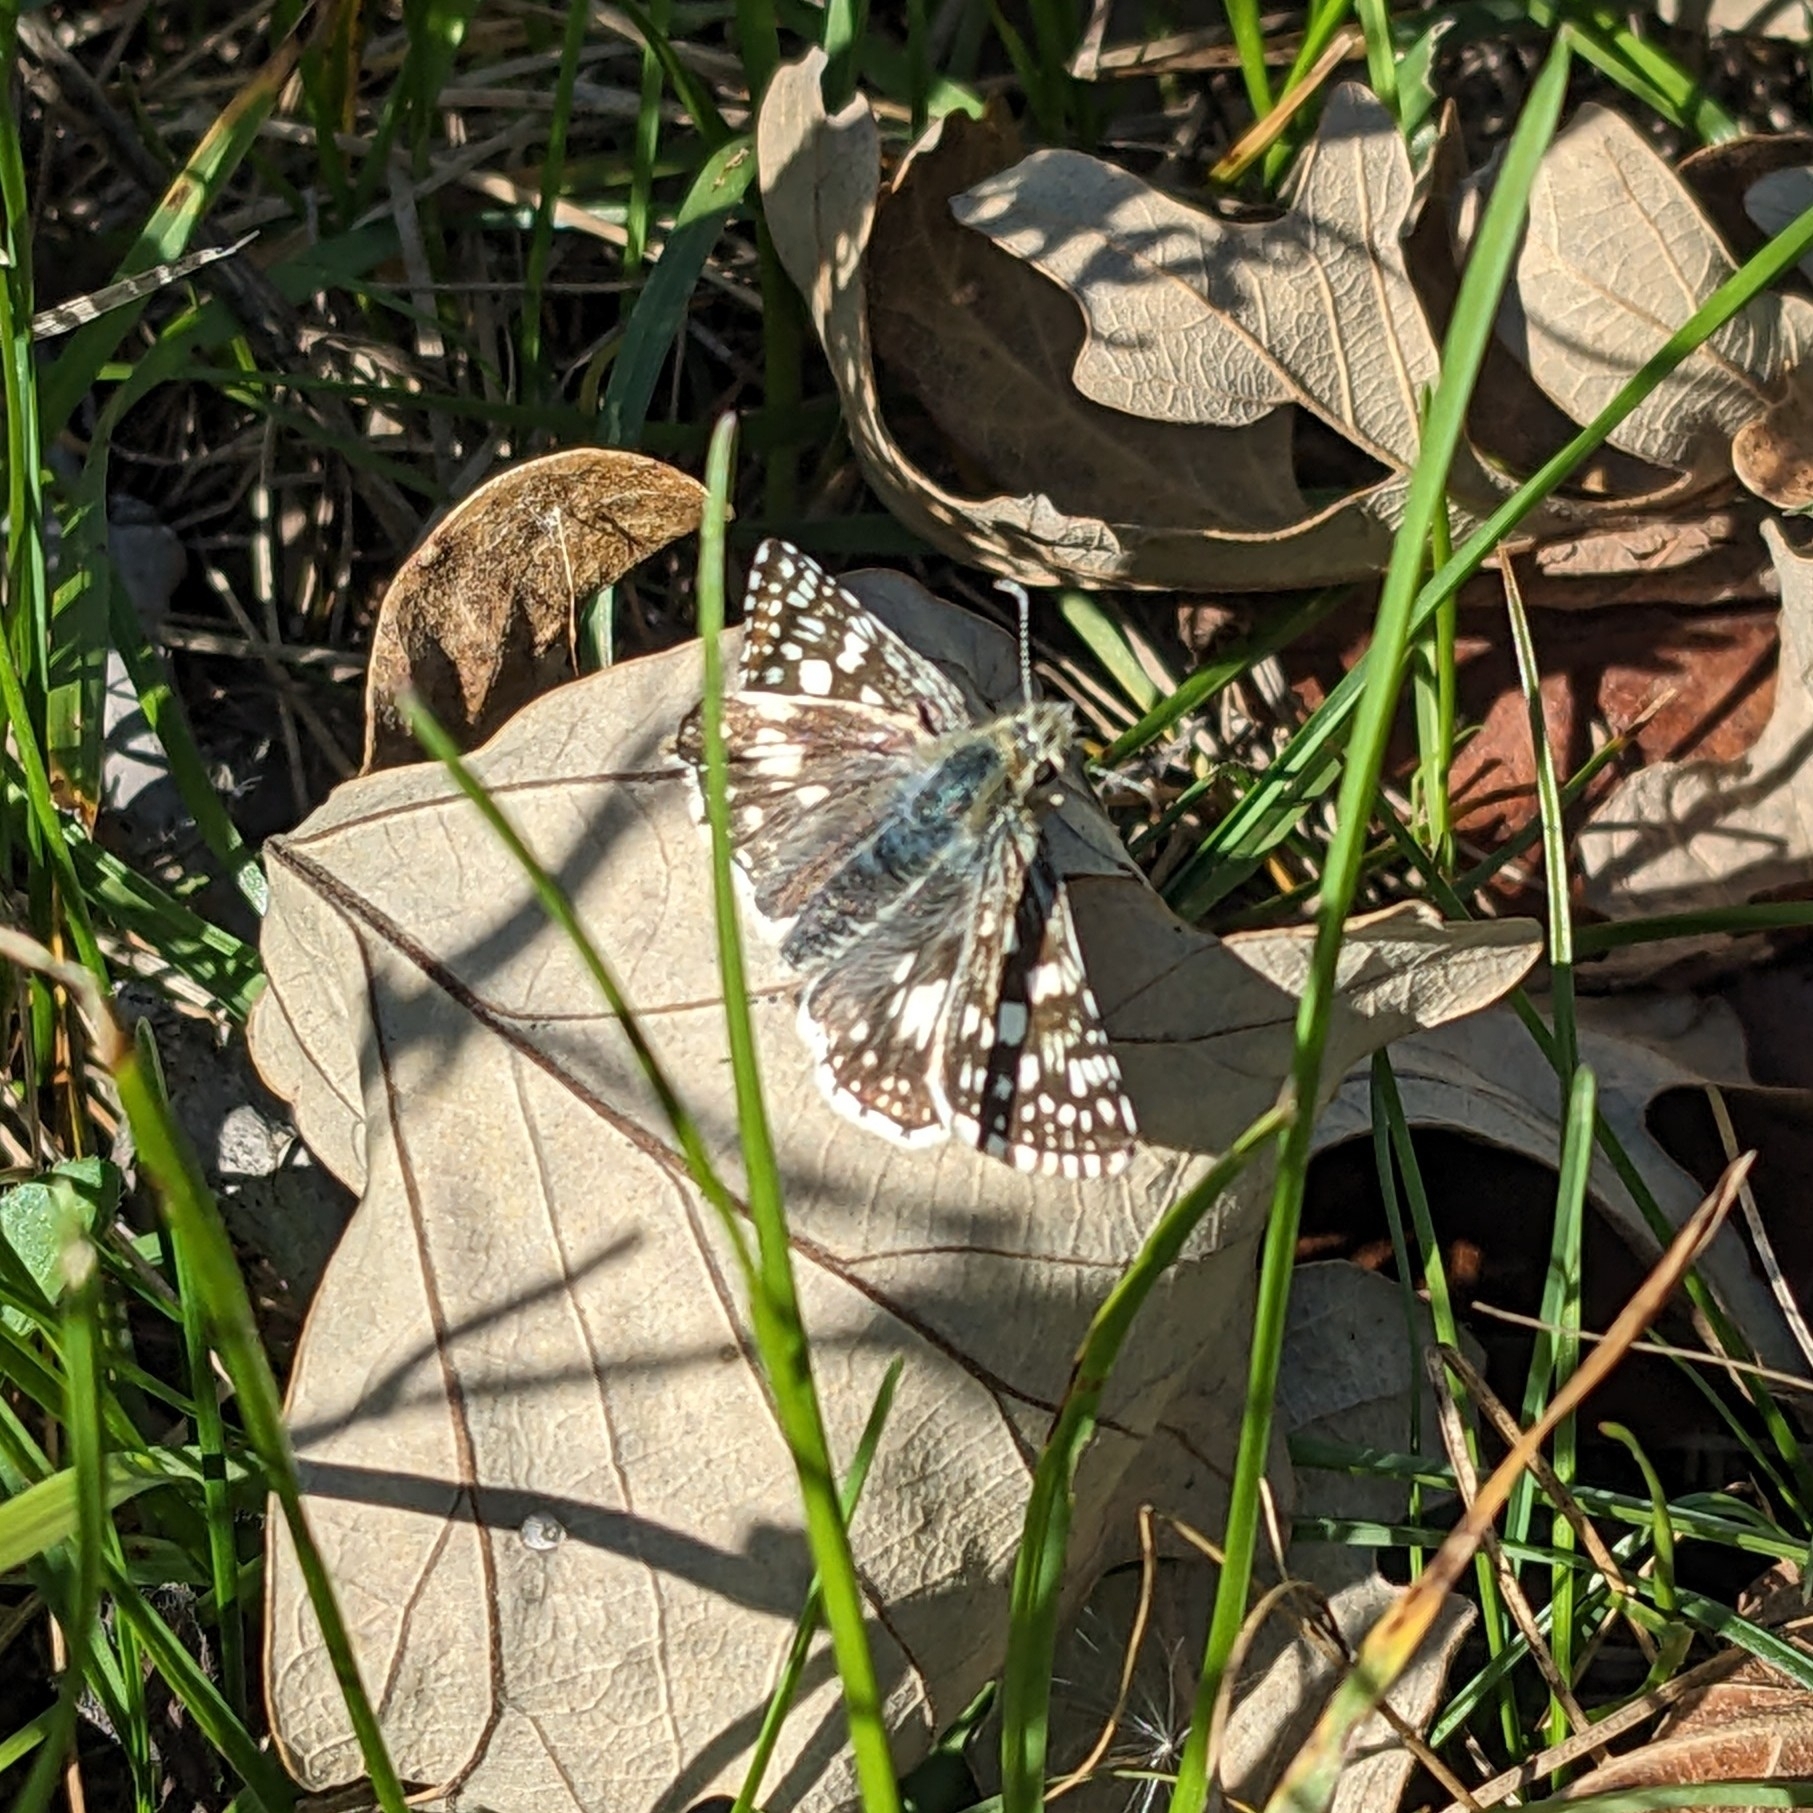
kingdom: Animalia
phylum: Arthropoda
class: Insecta
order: Lepidoptera
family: Hesperiidae
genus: Burnsius
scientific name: Burnsius communis
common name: Common checkered-skipper
